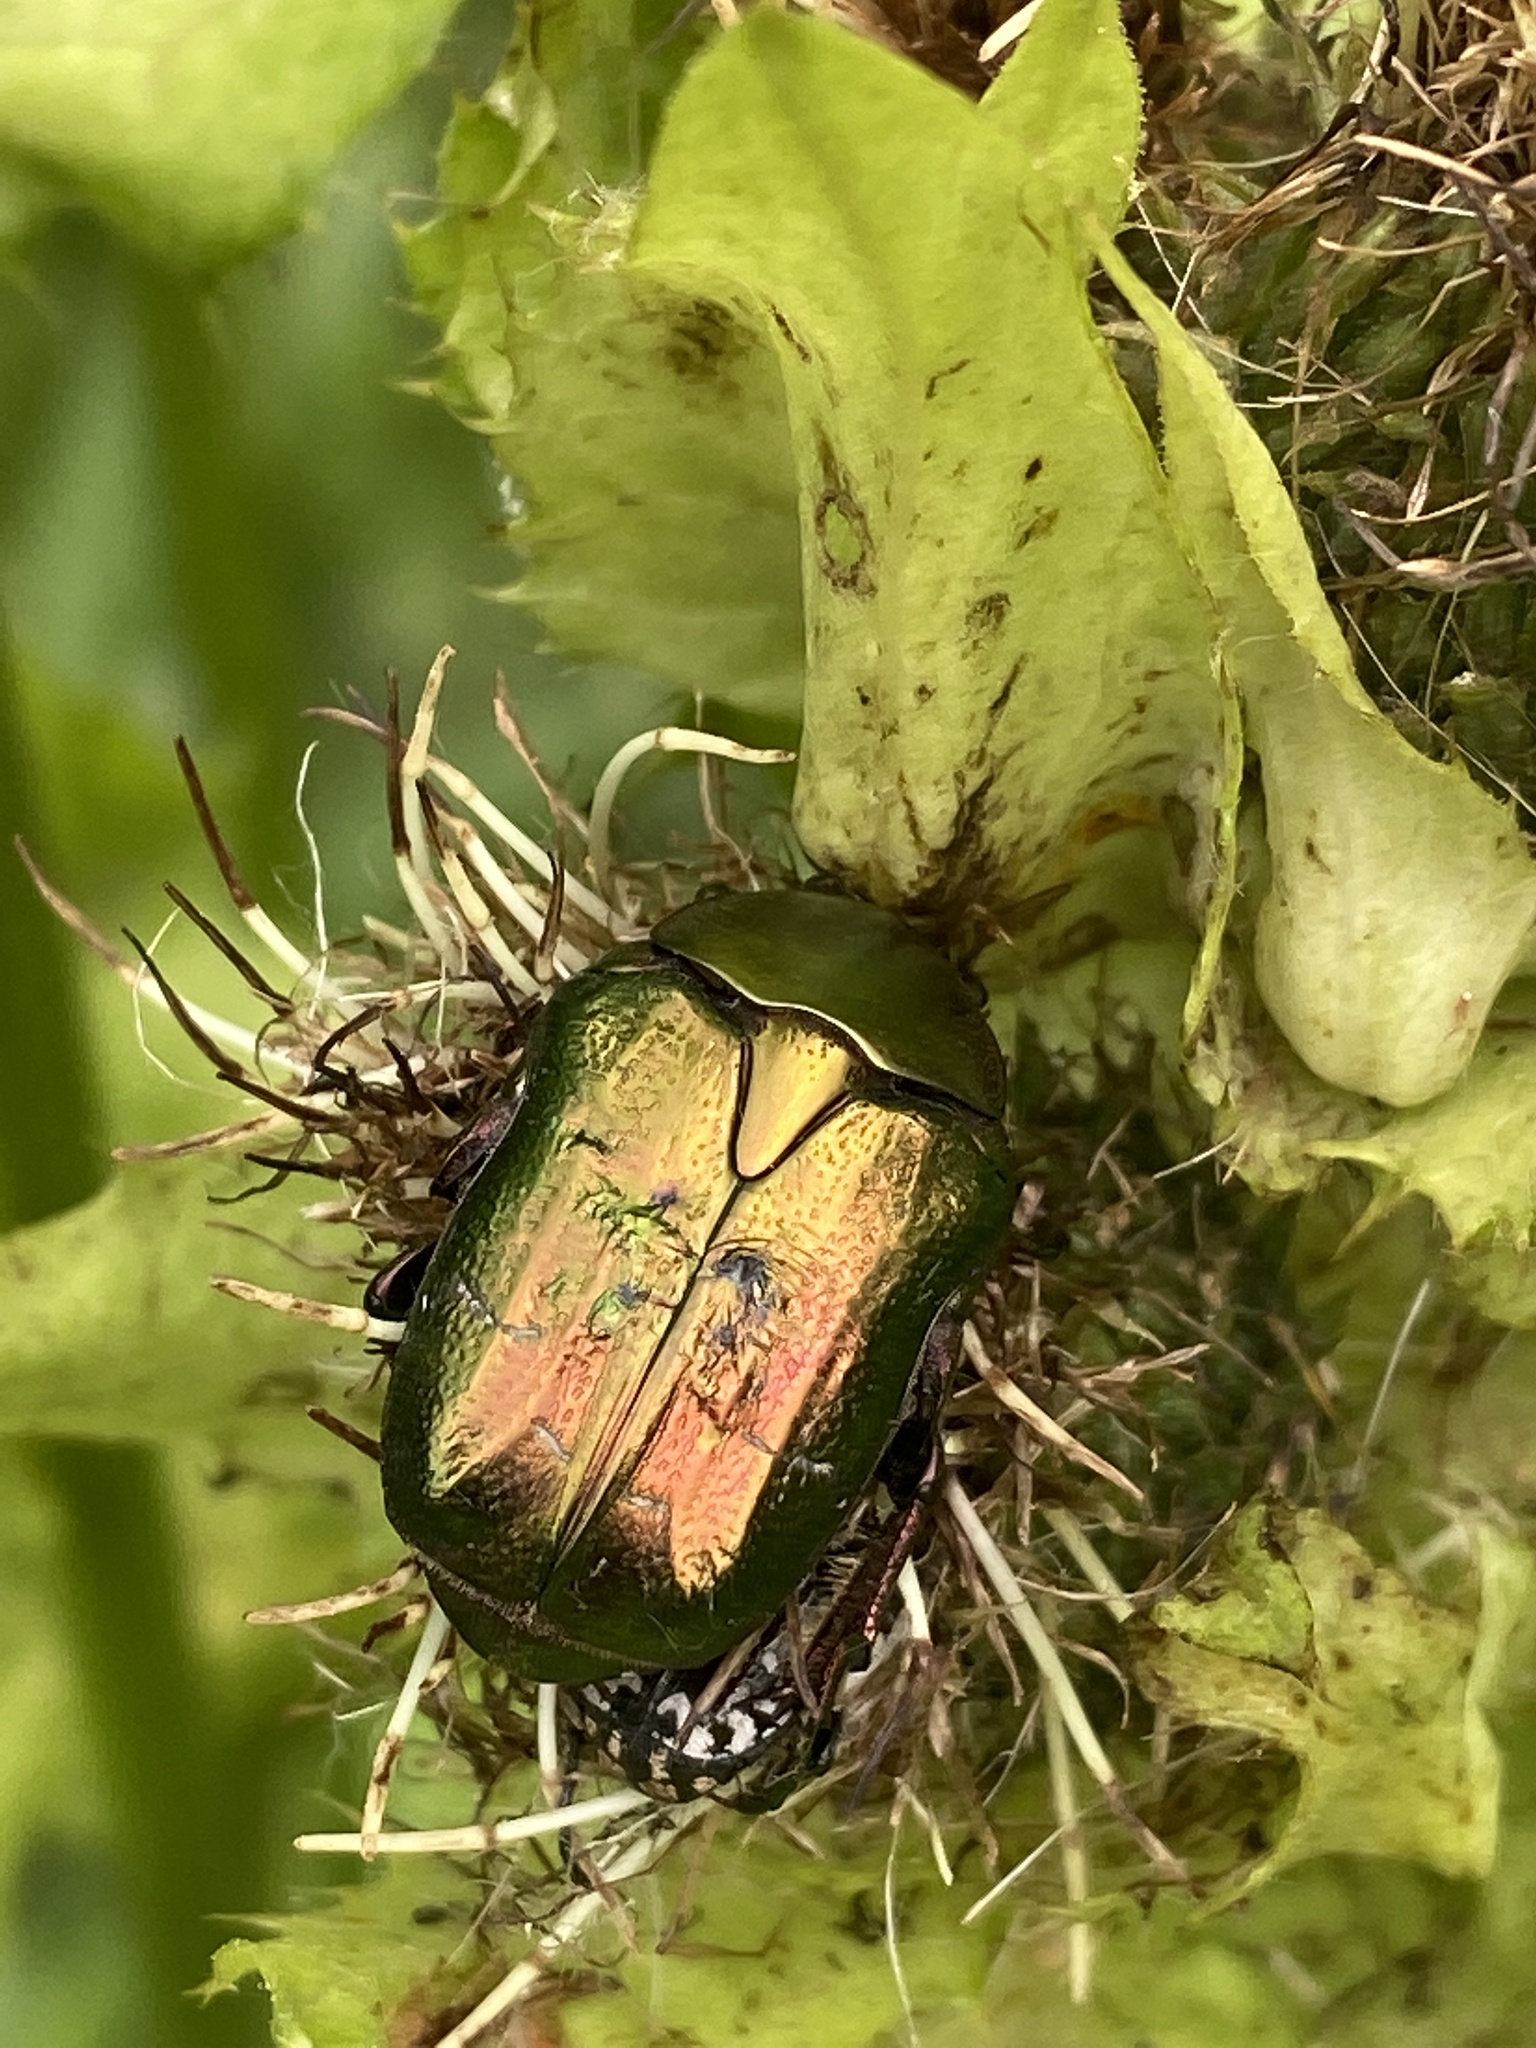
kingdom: Animalia
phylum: Arthropoda
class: Insecta
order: Coleoptera
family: Scarabaeidae
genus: Cetonia
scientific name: Cetonia aurata
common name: Rose chafer
